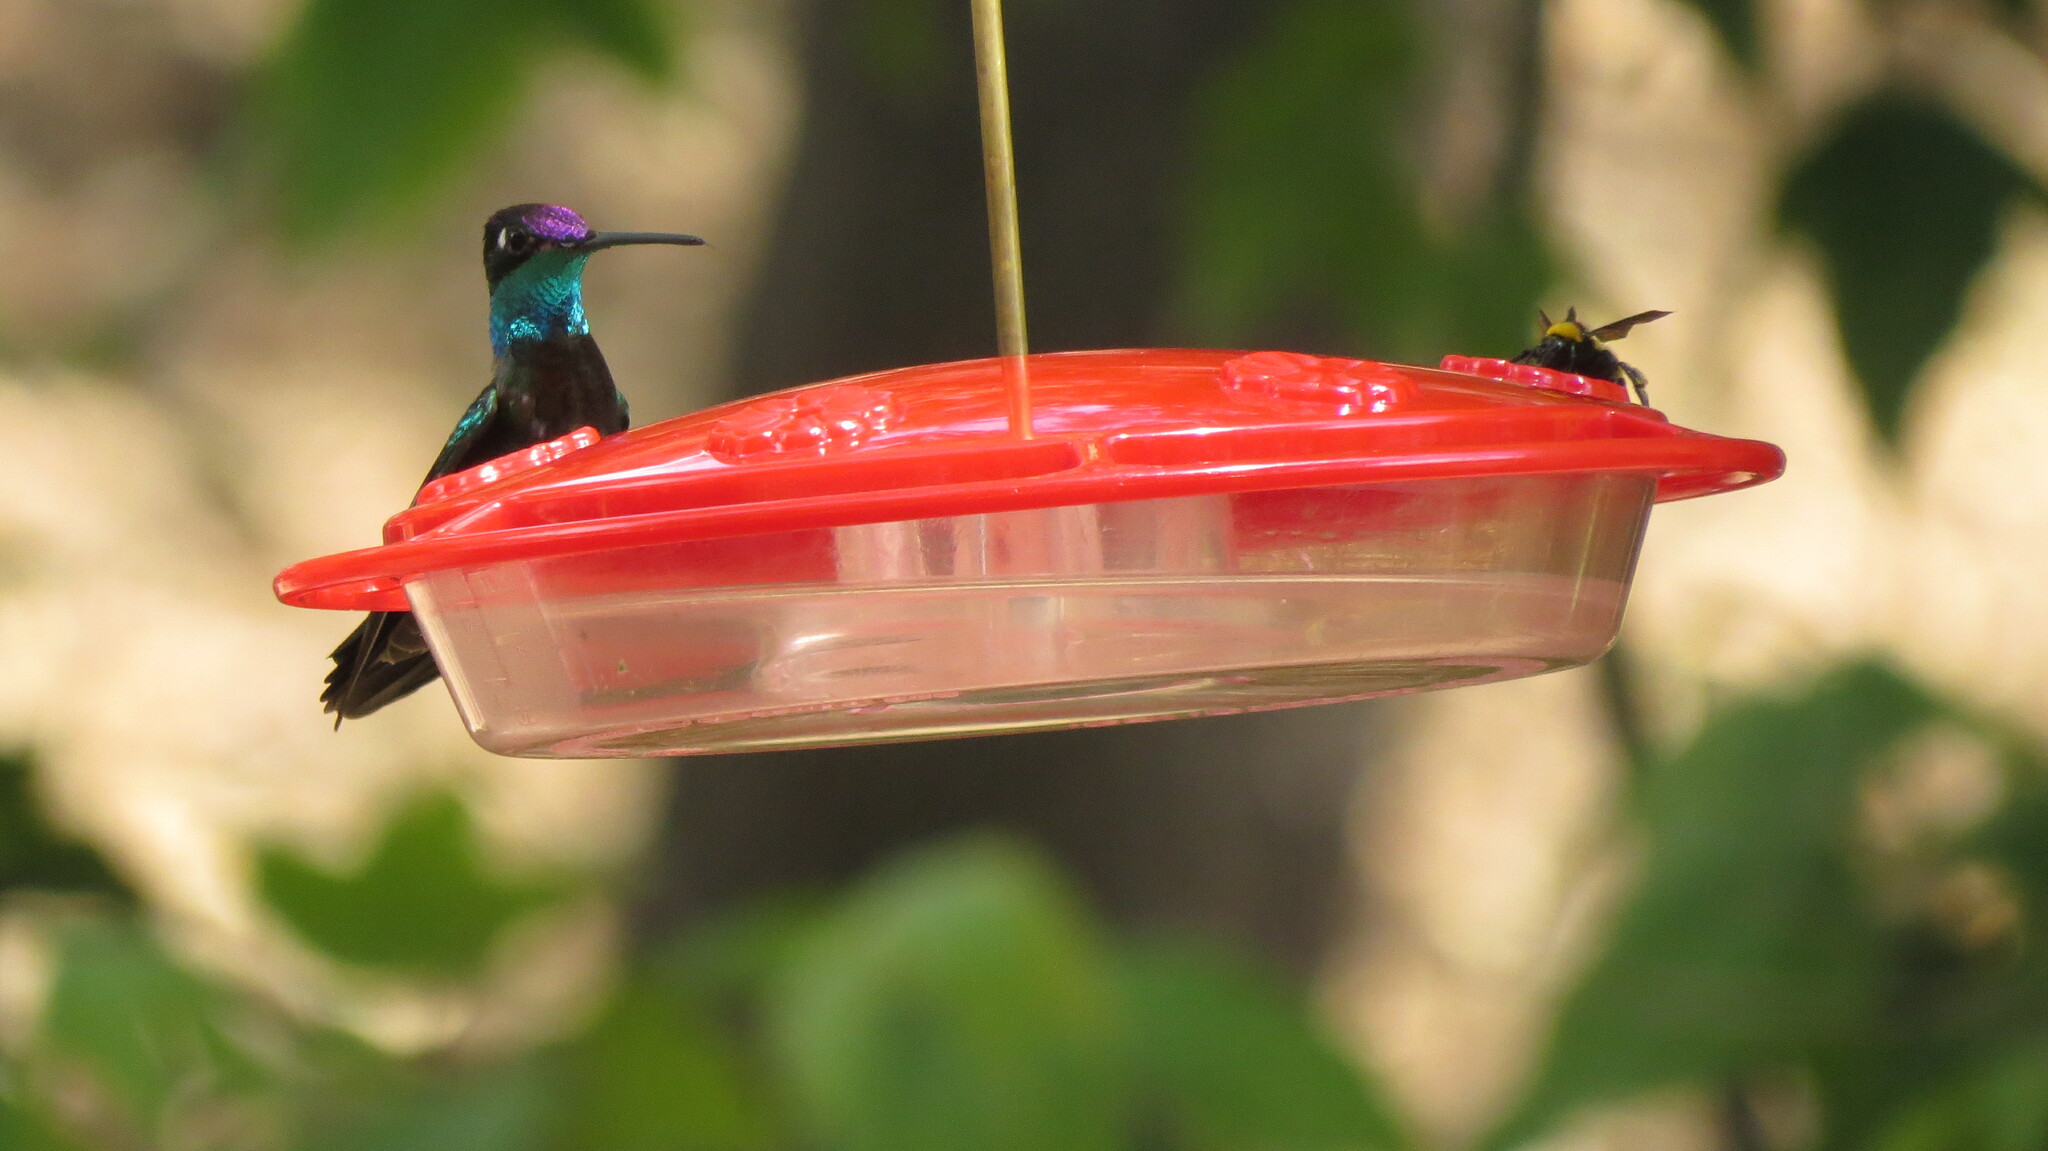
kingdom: Animalia
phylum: Arthropoda
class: Insecta
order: Hymenoptera
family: Apidae
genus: Bombus
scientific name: Bombus sonorus
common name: Sonoran bumble bee
